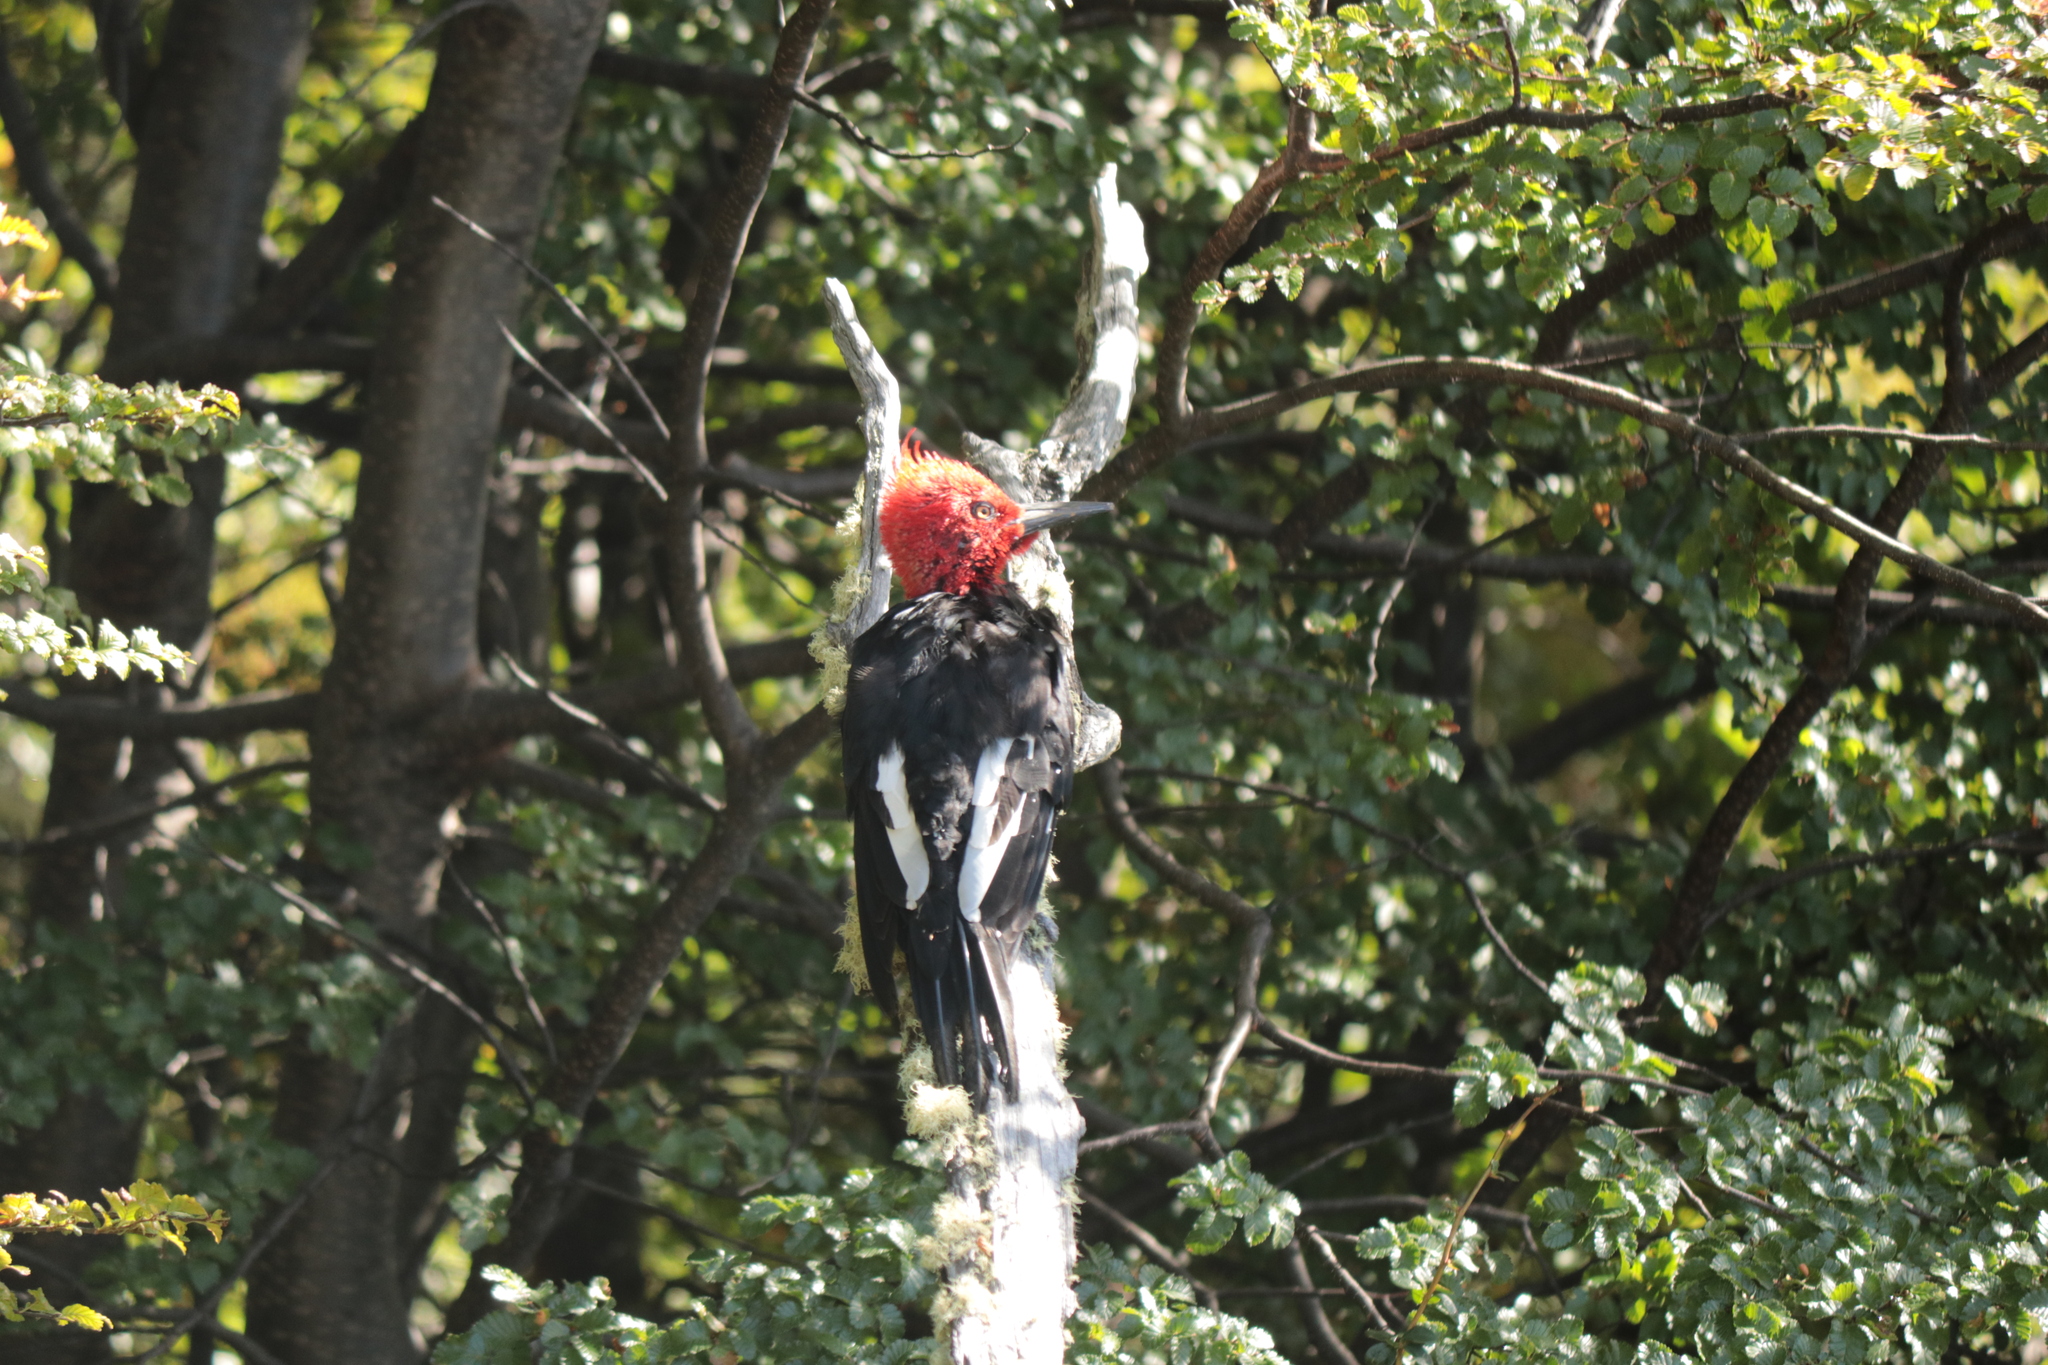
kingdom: Animalia
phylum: Chordata
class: Aves
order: Piciformes
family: Picidae
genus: Campephilus
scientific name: Campephilus magellanicus
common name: Magellanic woodpecker
